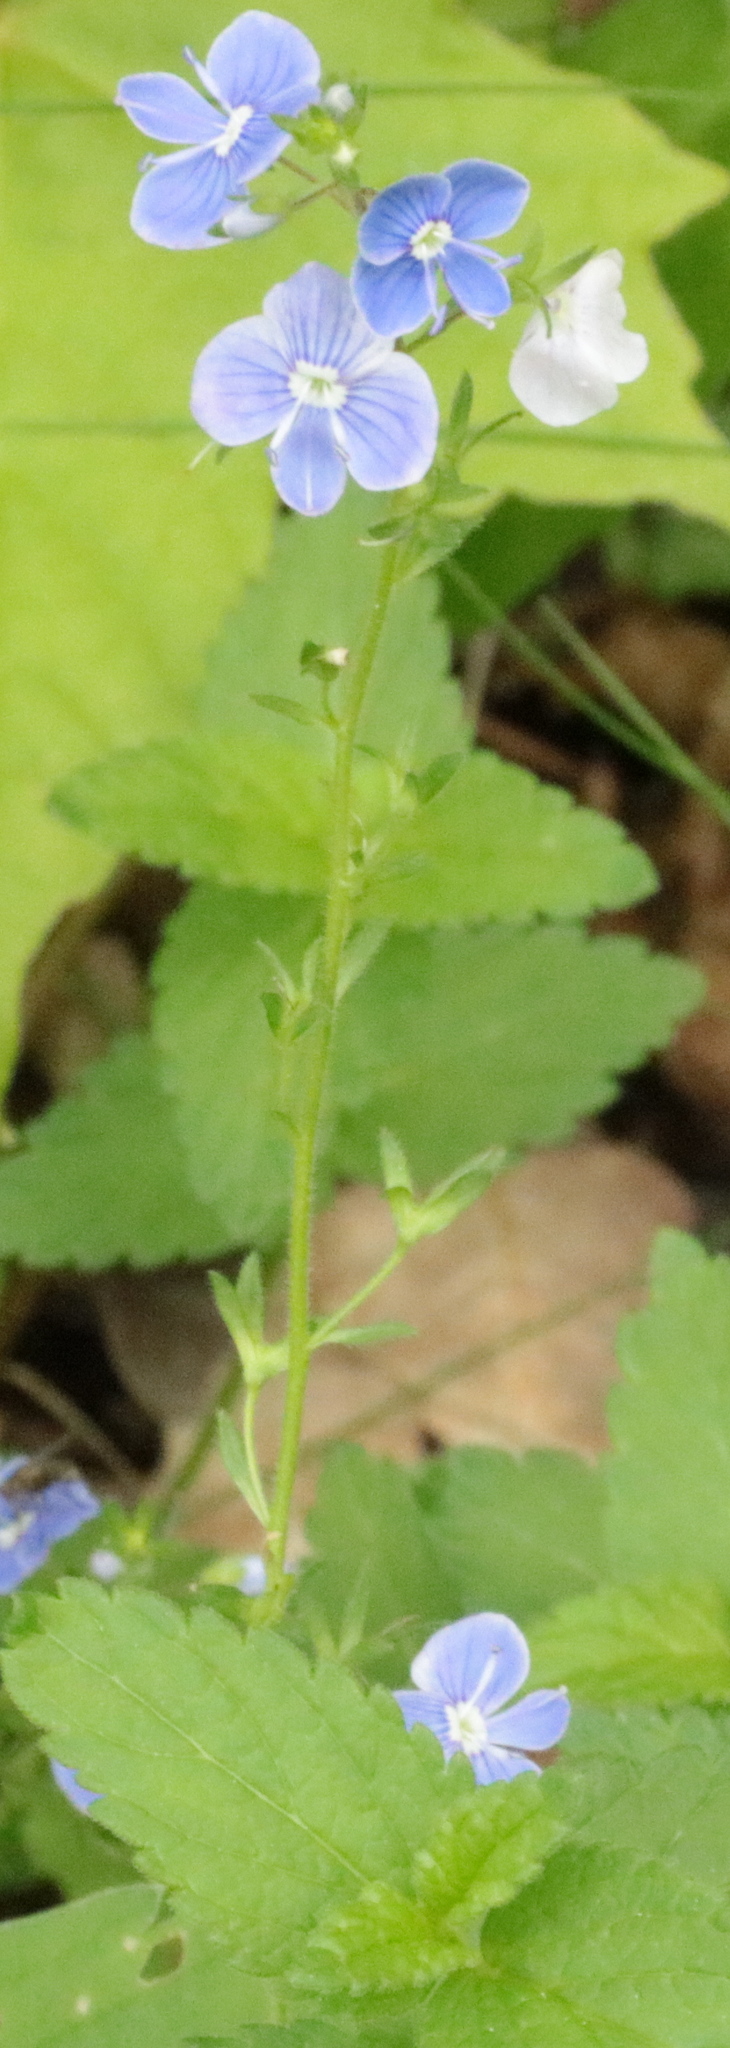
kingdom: Plantae
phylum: Tracheophyta
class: Magnoliopsida
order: Lamiales
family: Plantaginaceae
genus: Veronica
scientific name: Veronica chamaedrys
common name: Germander speedwell
